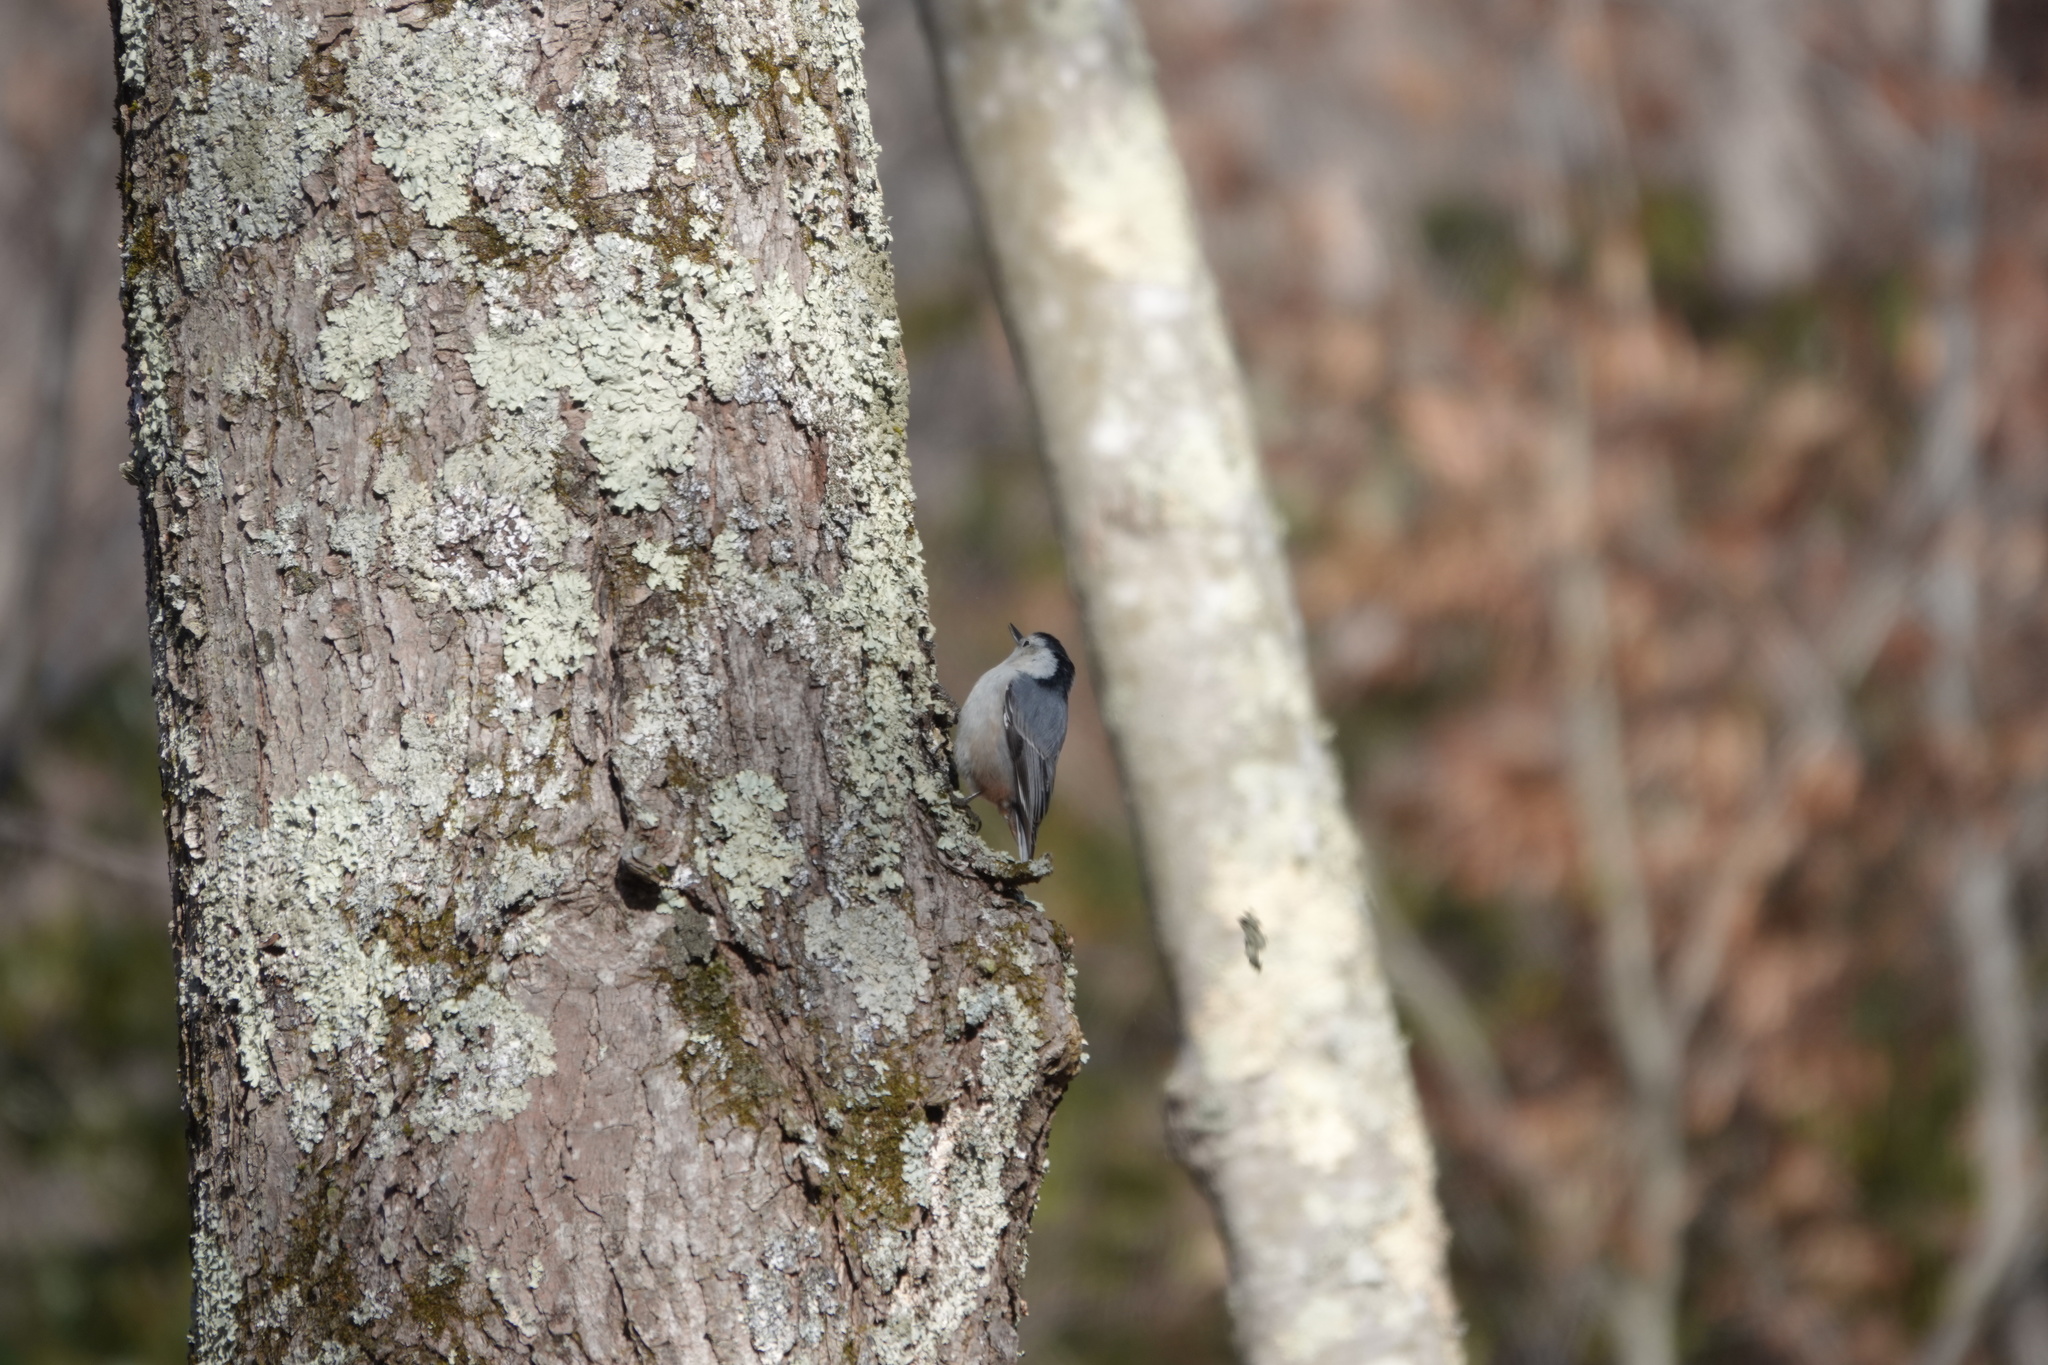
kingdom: Animalia
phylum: Chordata
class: Aves
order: Passeriformes
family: Sittidae
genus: Sitta
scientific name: Sitta carolinensis
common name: White-breasted nuthatch
